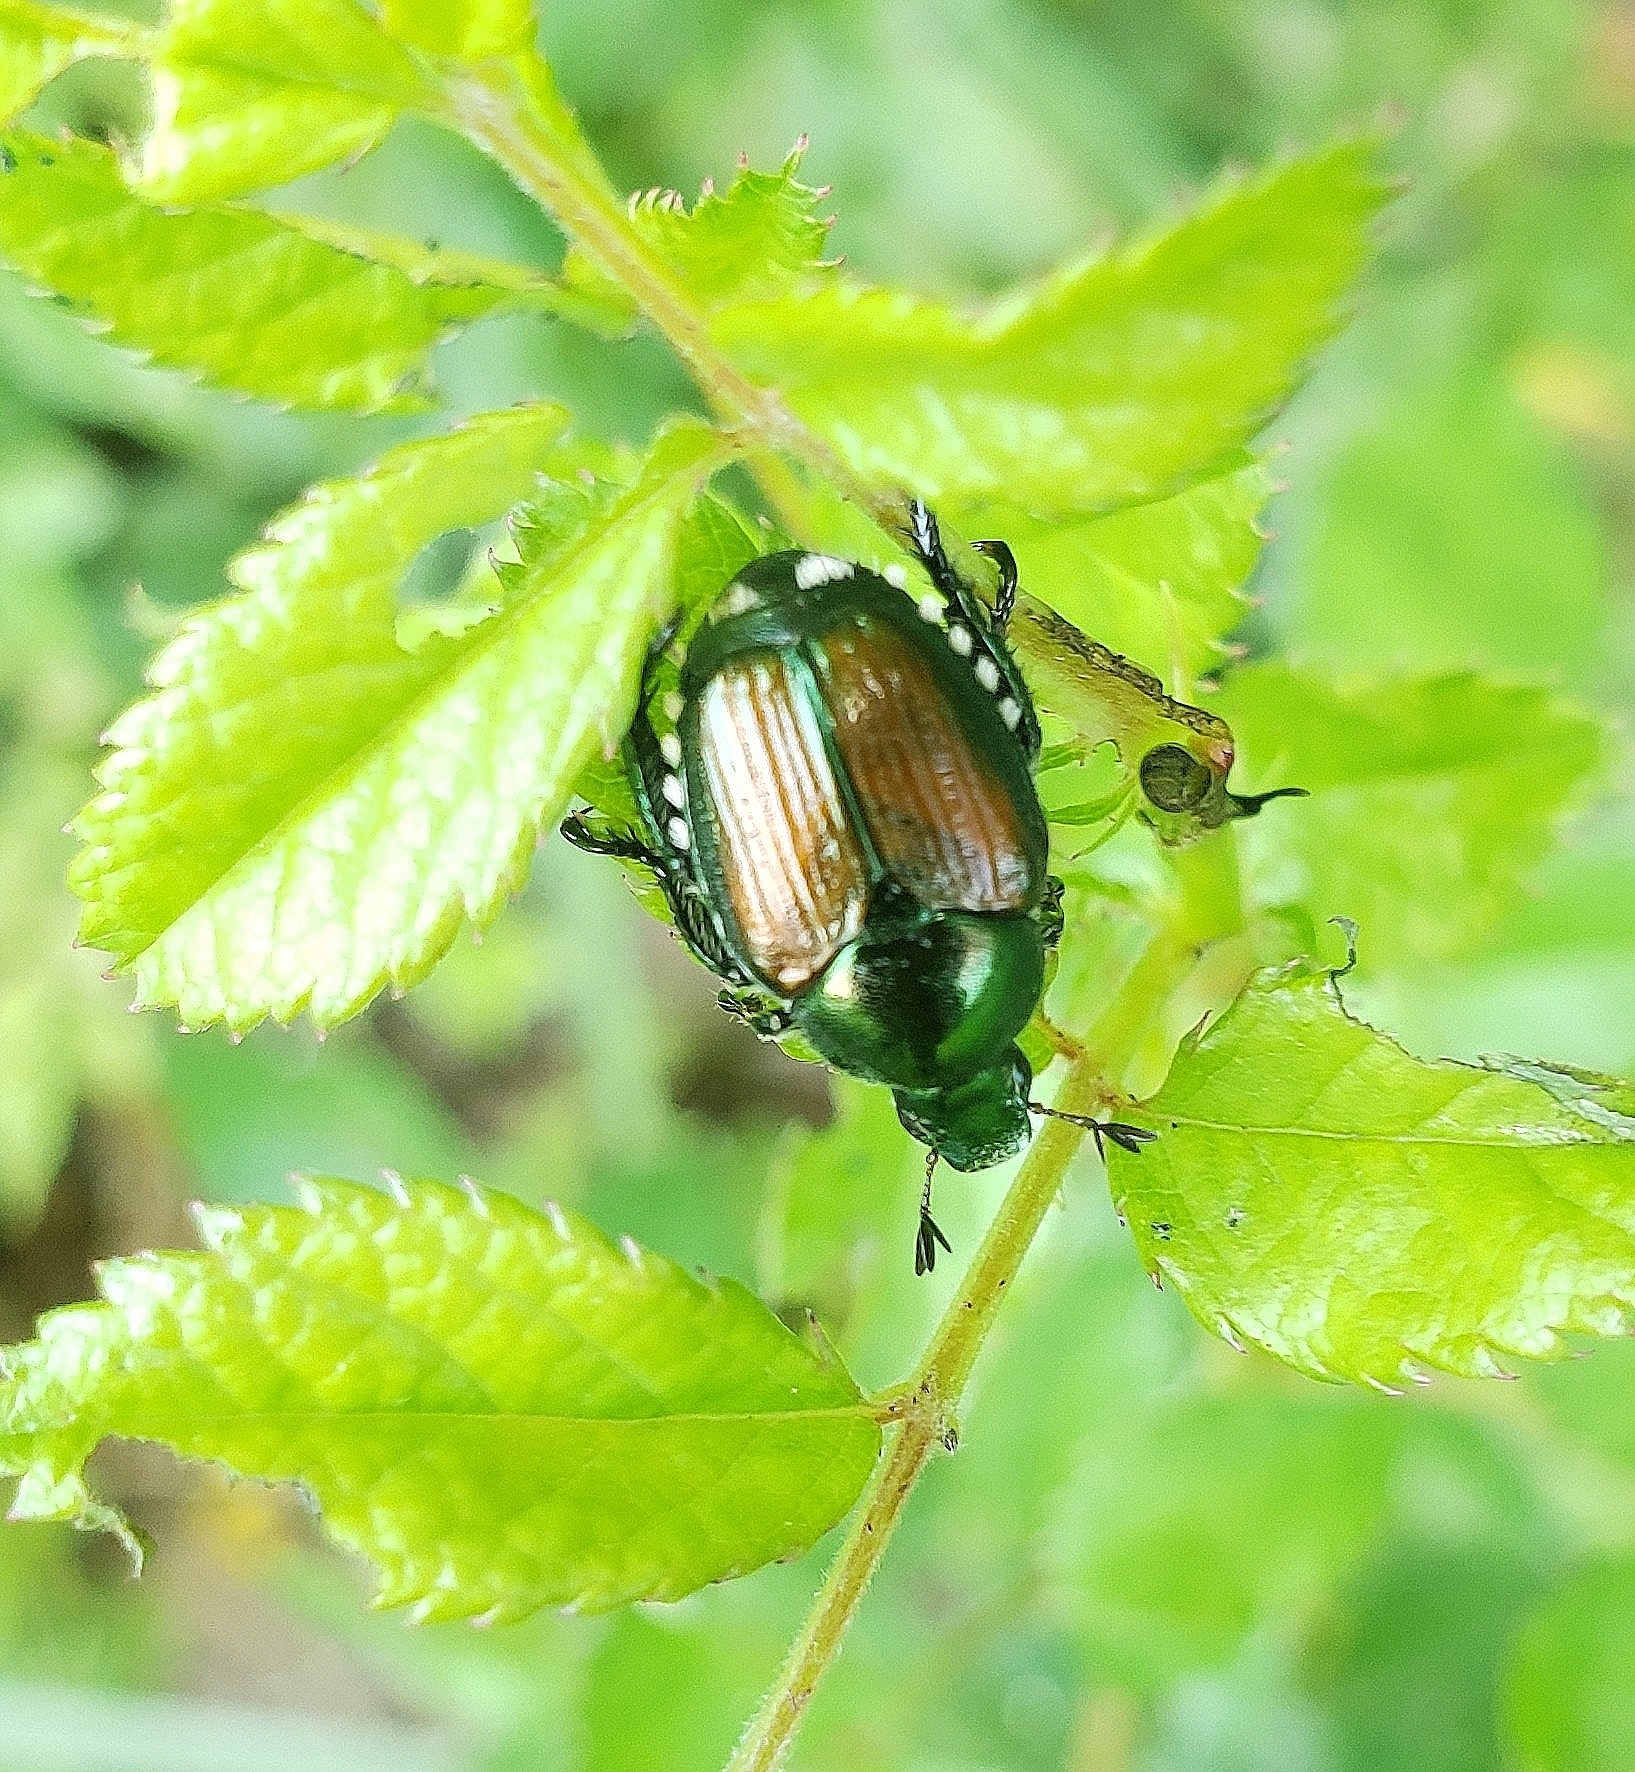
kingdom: Animalia
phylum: Arthropoda
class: Insecta
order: Coleoptera
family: Scarabaeidae
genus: Popillia
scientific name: Popillia japonica
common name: Japanese beetle
